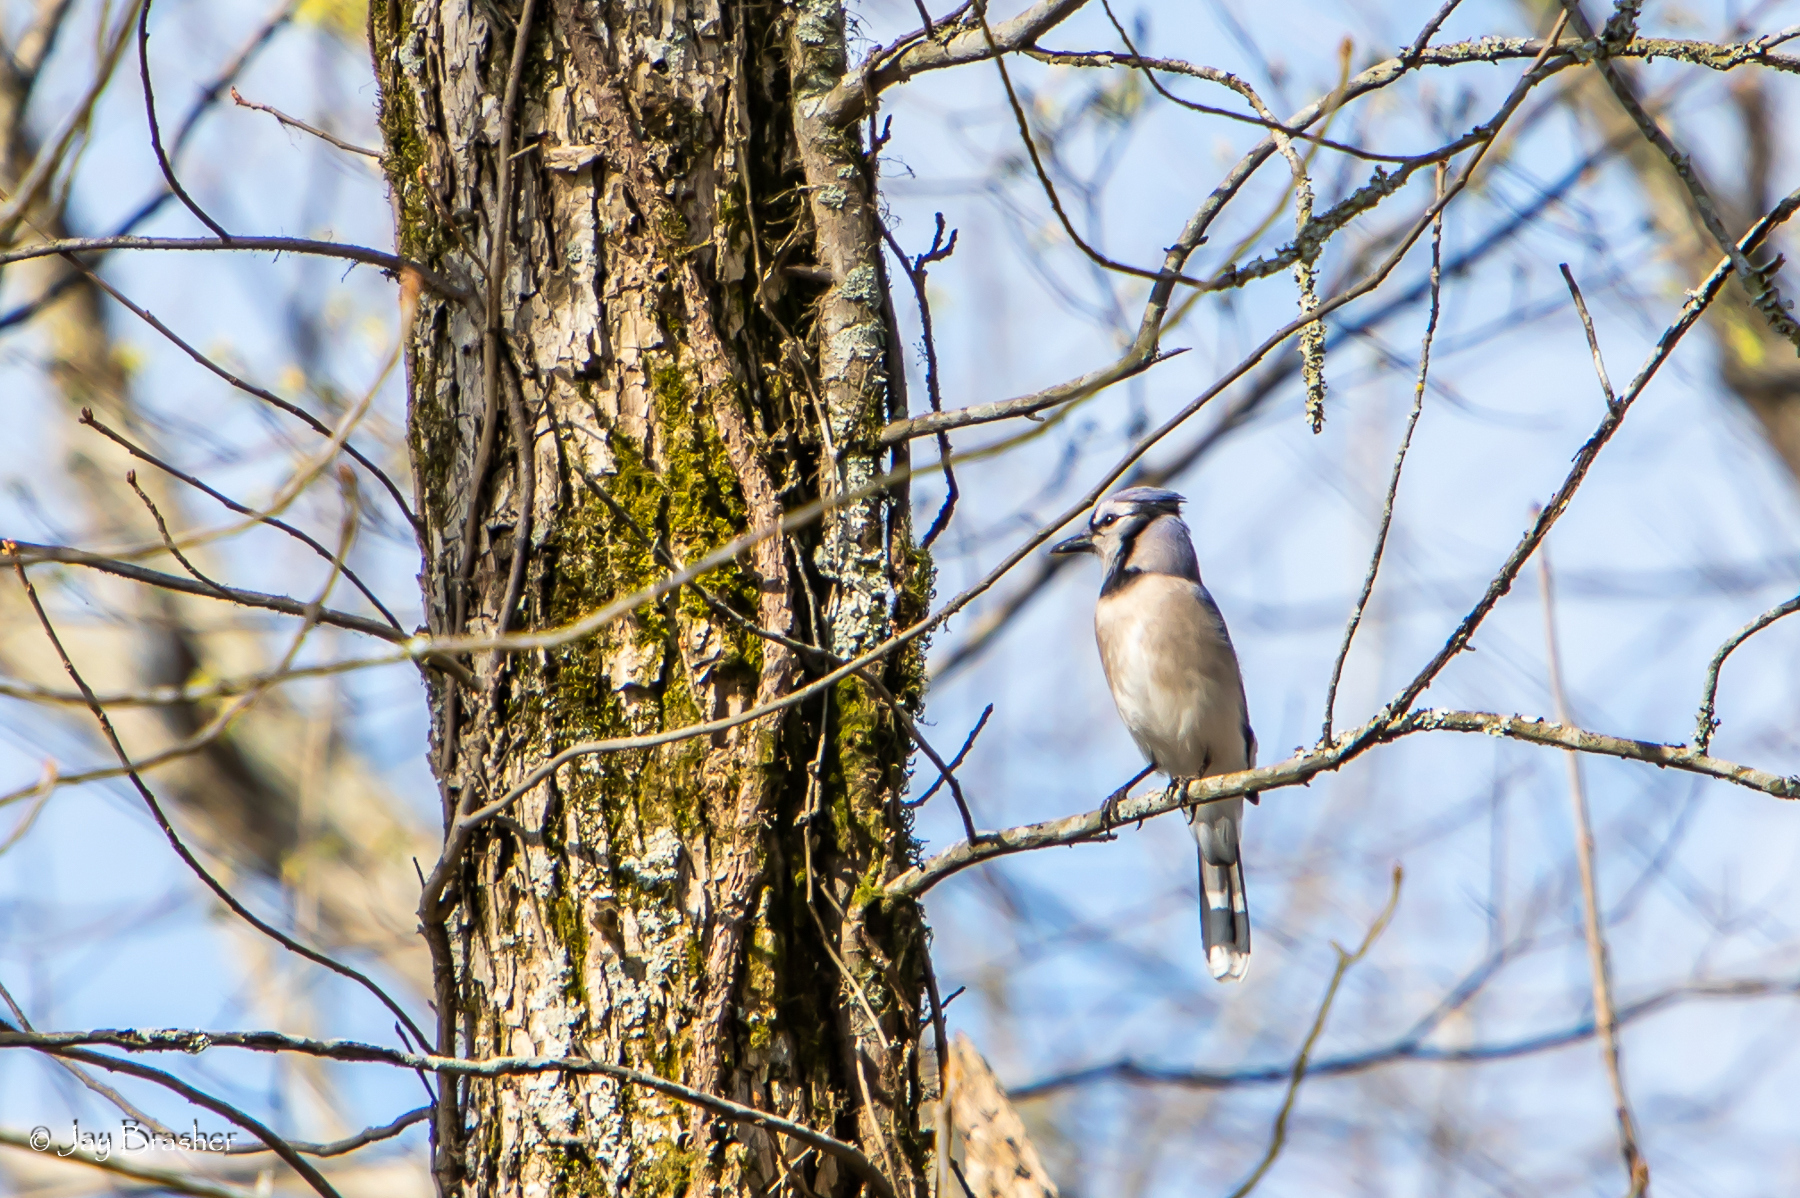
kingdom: Animalia
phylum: Chordata
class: Aves
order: Passeriformes
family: Corvidae
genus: Cyanocitta
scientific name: Cyanocitta cristata
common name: Blue jay
